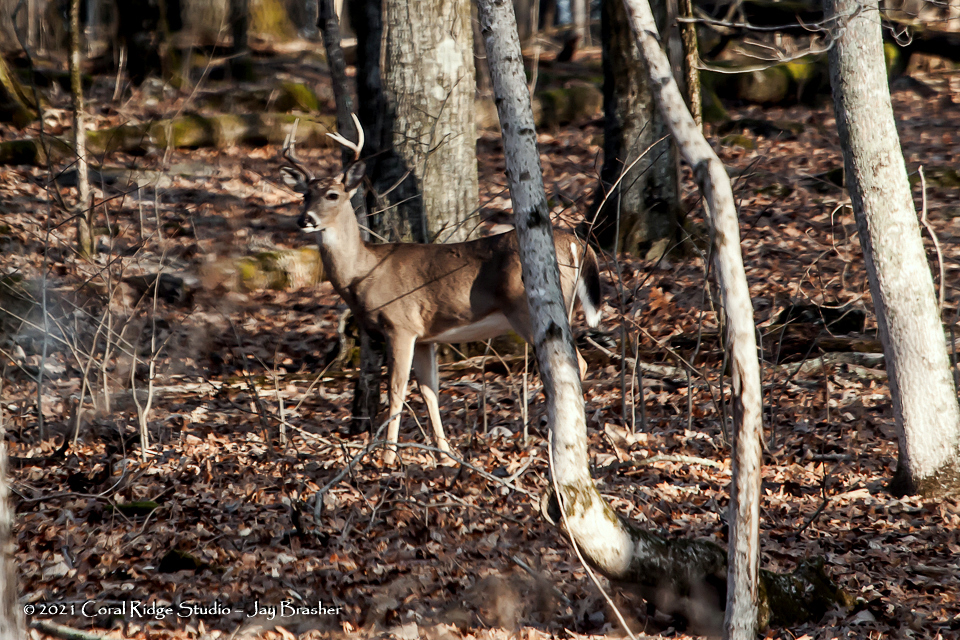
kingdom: Animalia
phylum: Chordata
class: Mammalia
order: Artiodactyla
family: Cervidae
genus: Odocoileus
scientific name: Odocoileus virginianus
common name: White-tailed deer
